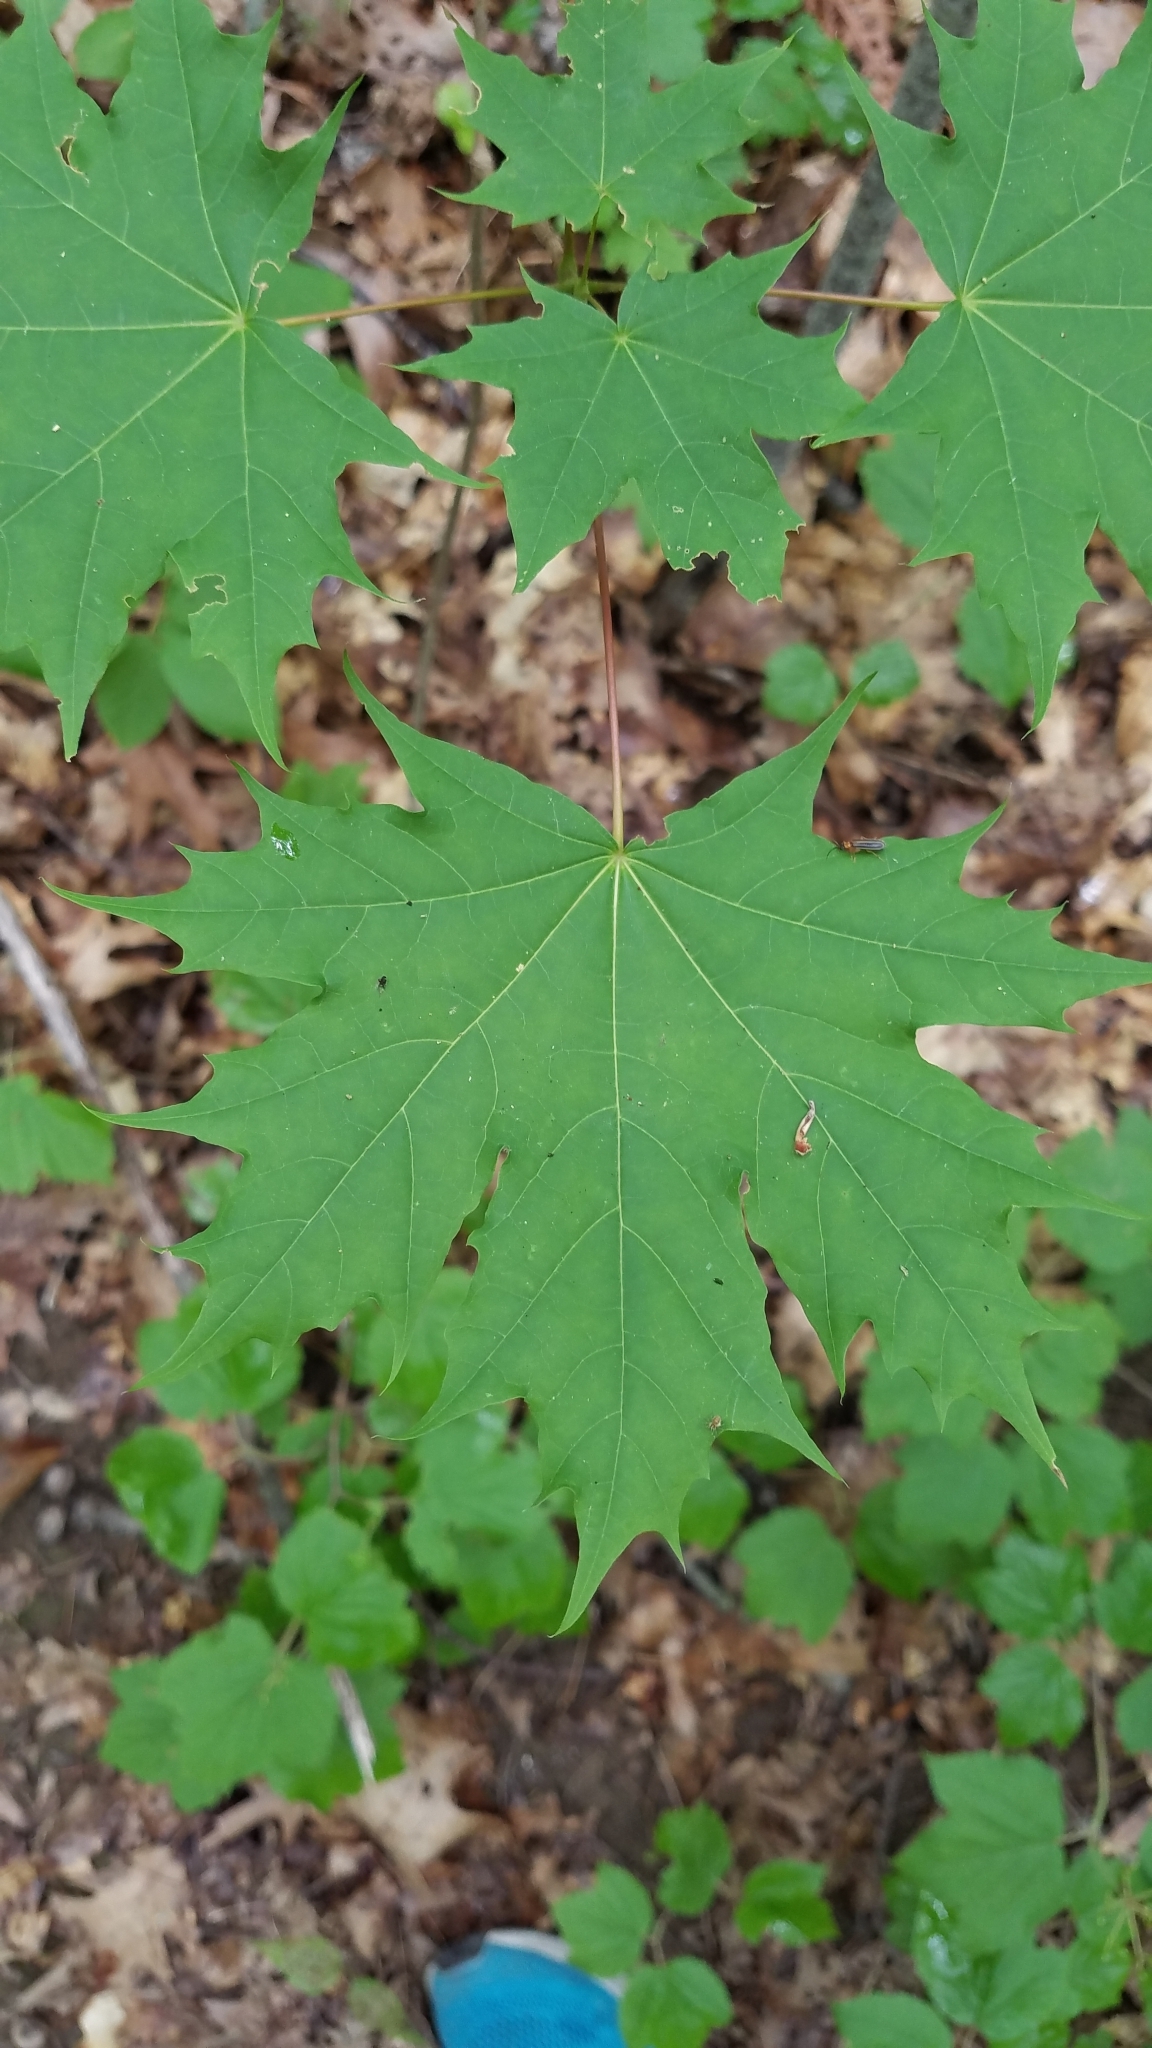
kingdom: Plantae
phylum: Tracheophyta
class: Magnoliopsida
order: Sapindales
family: Sapindaceae
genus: Acer
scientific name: Acer platanoides
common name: Norway maple
